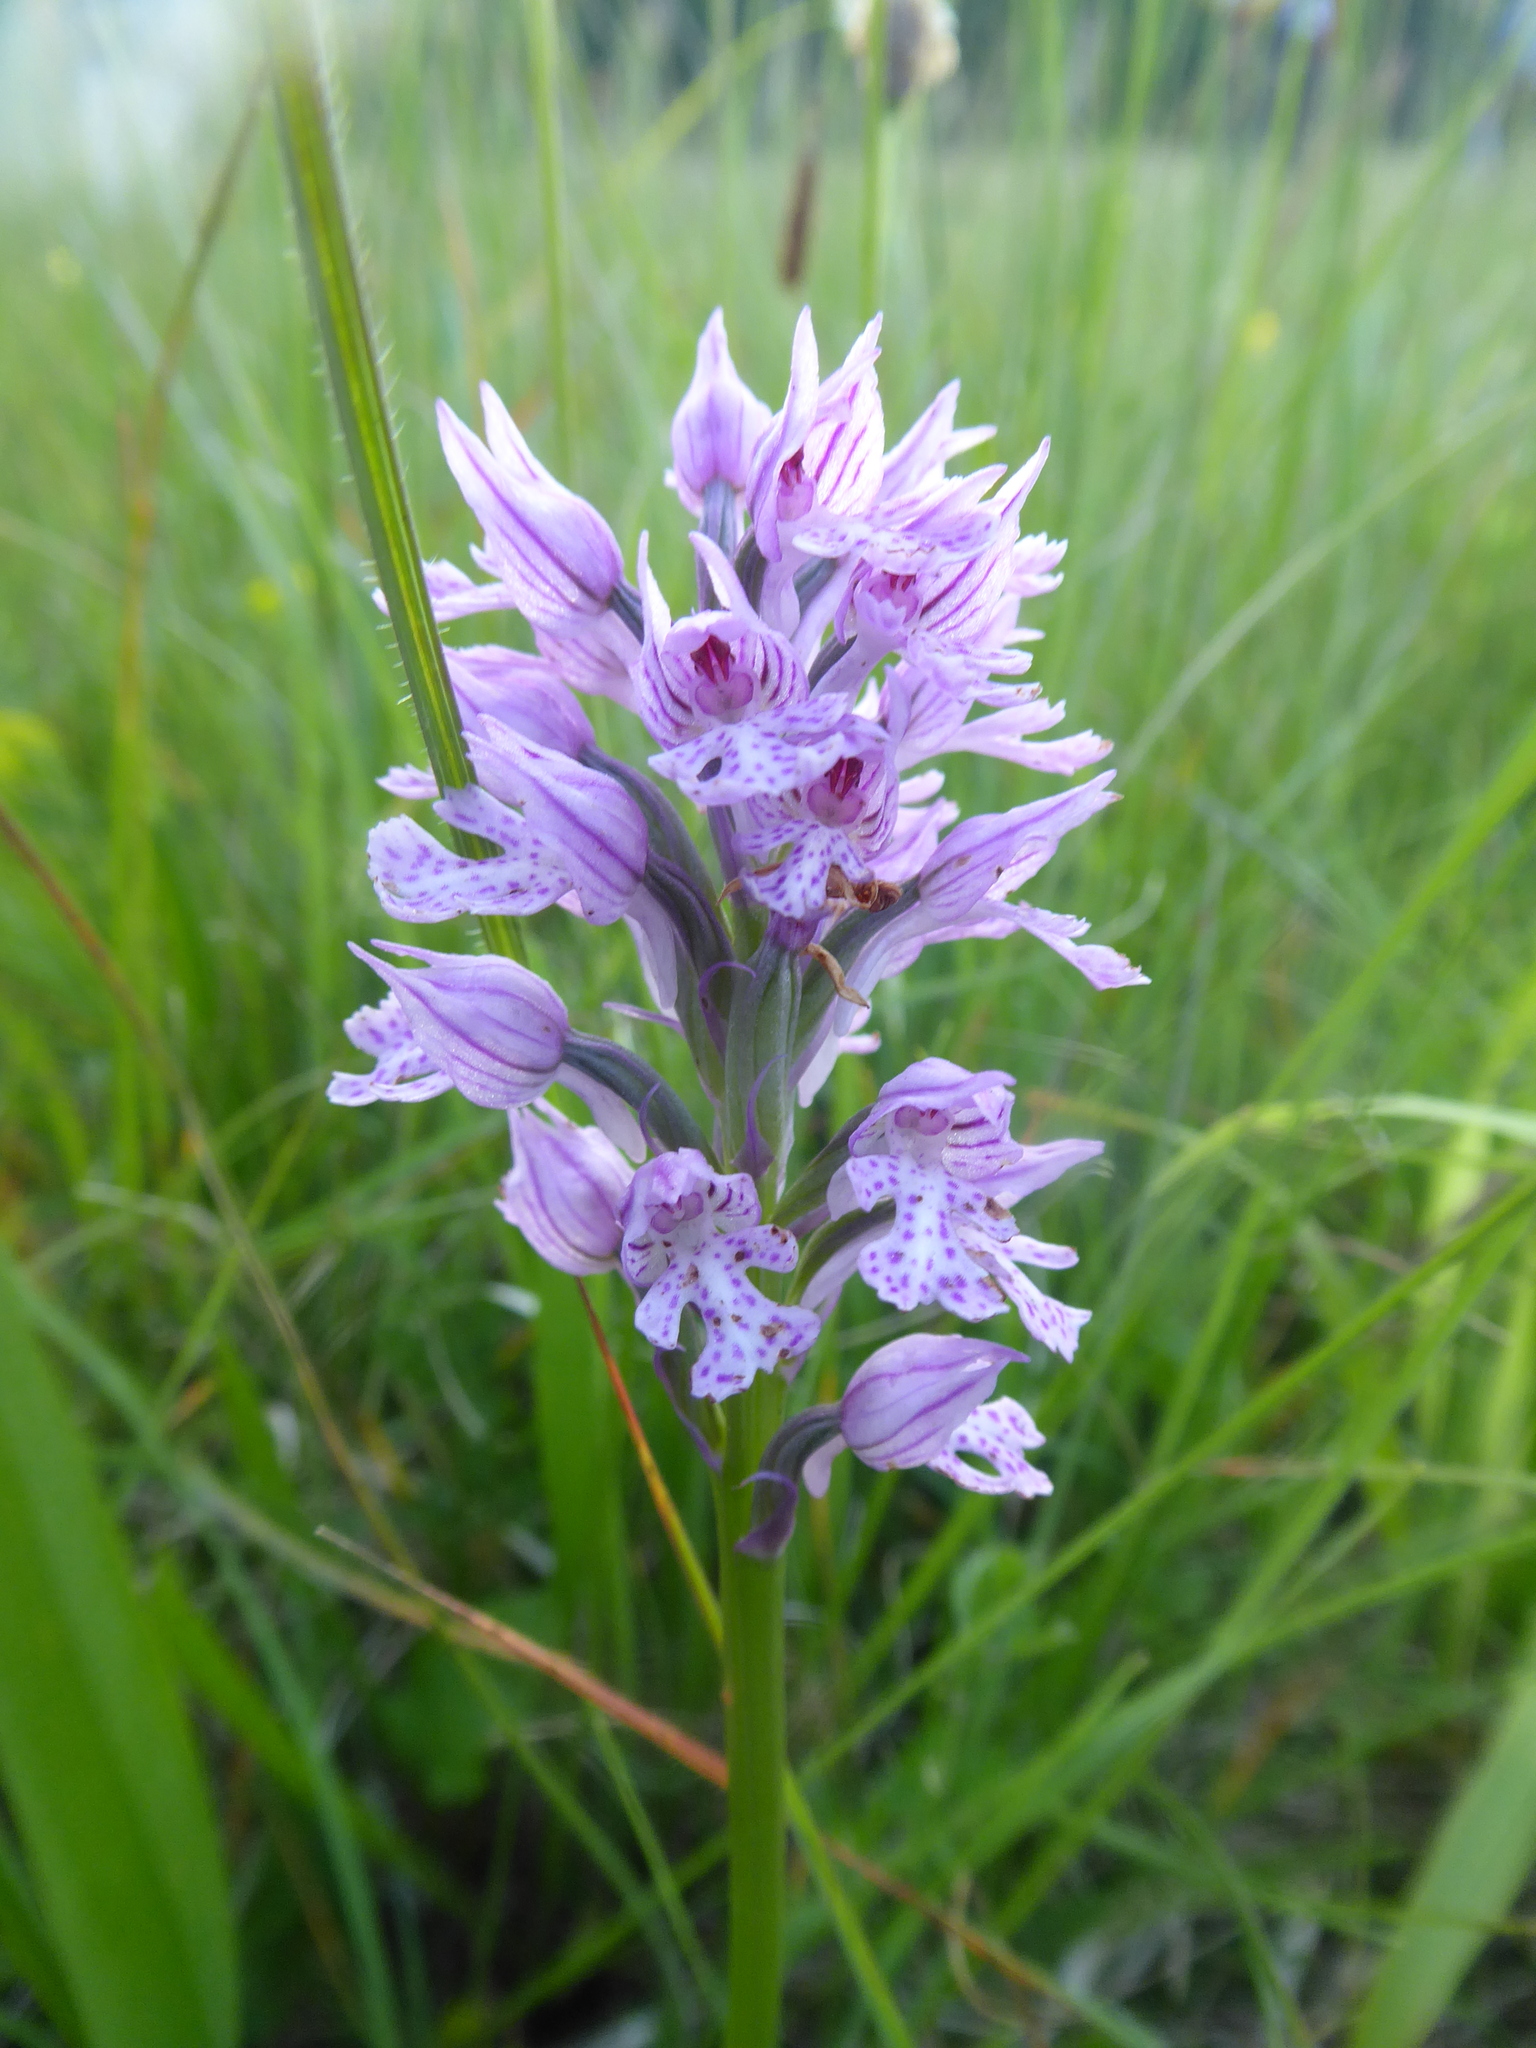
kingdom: Plantae
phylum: Tracheophyta
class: Liliopsida
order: Asparagales
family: Orchidaceae
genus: Neotinea
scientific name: Neotinea tridentata
